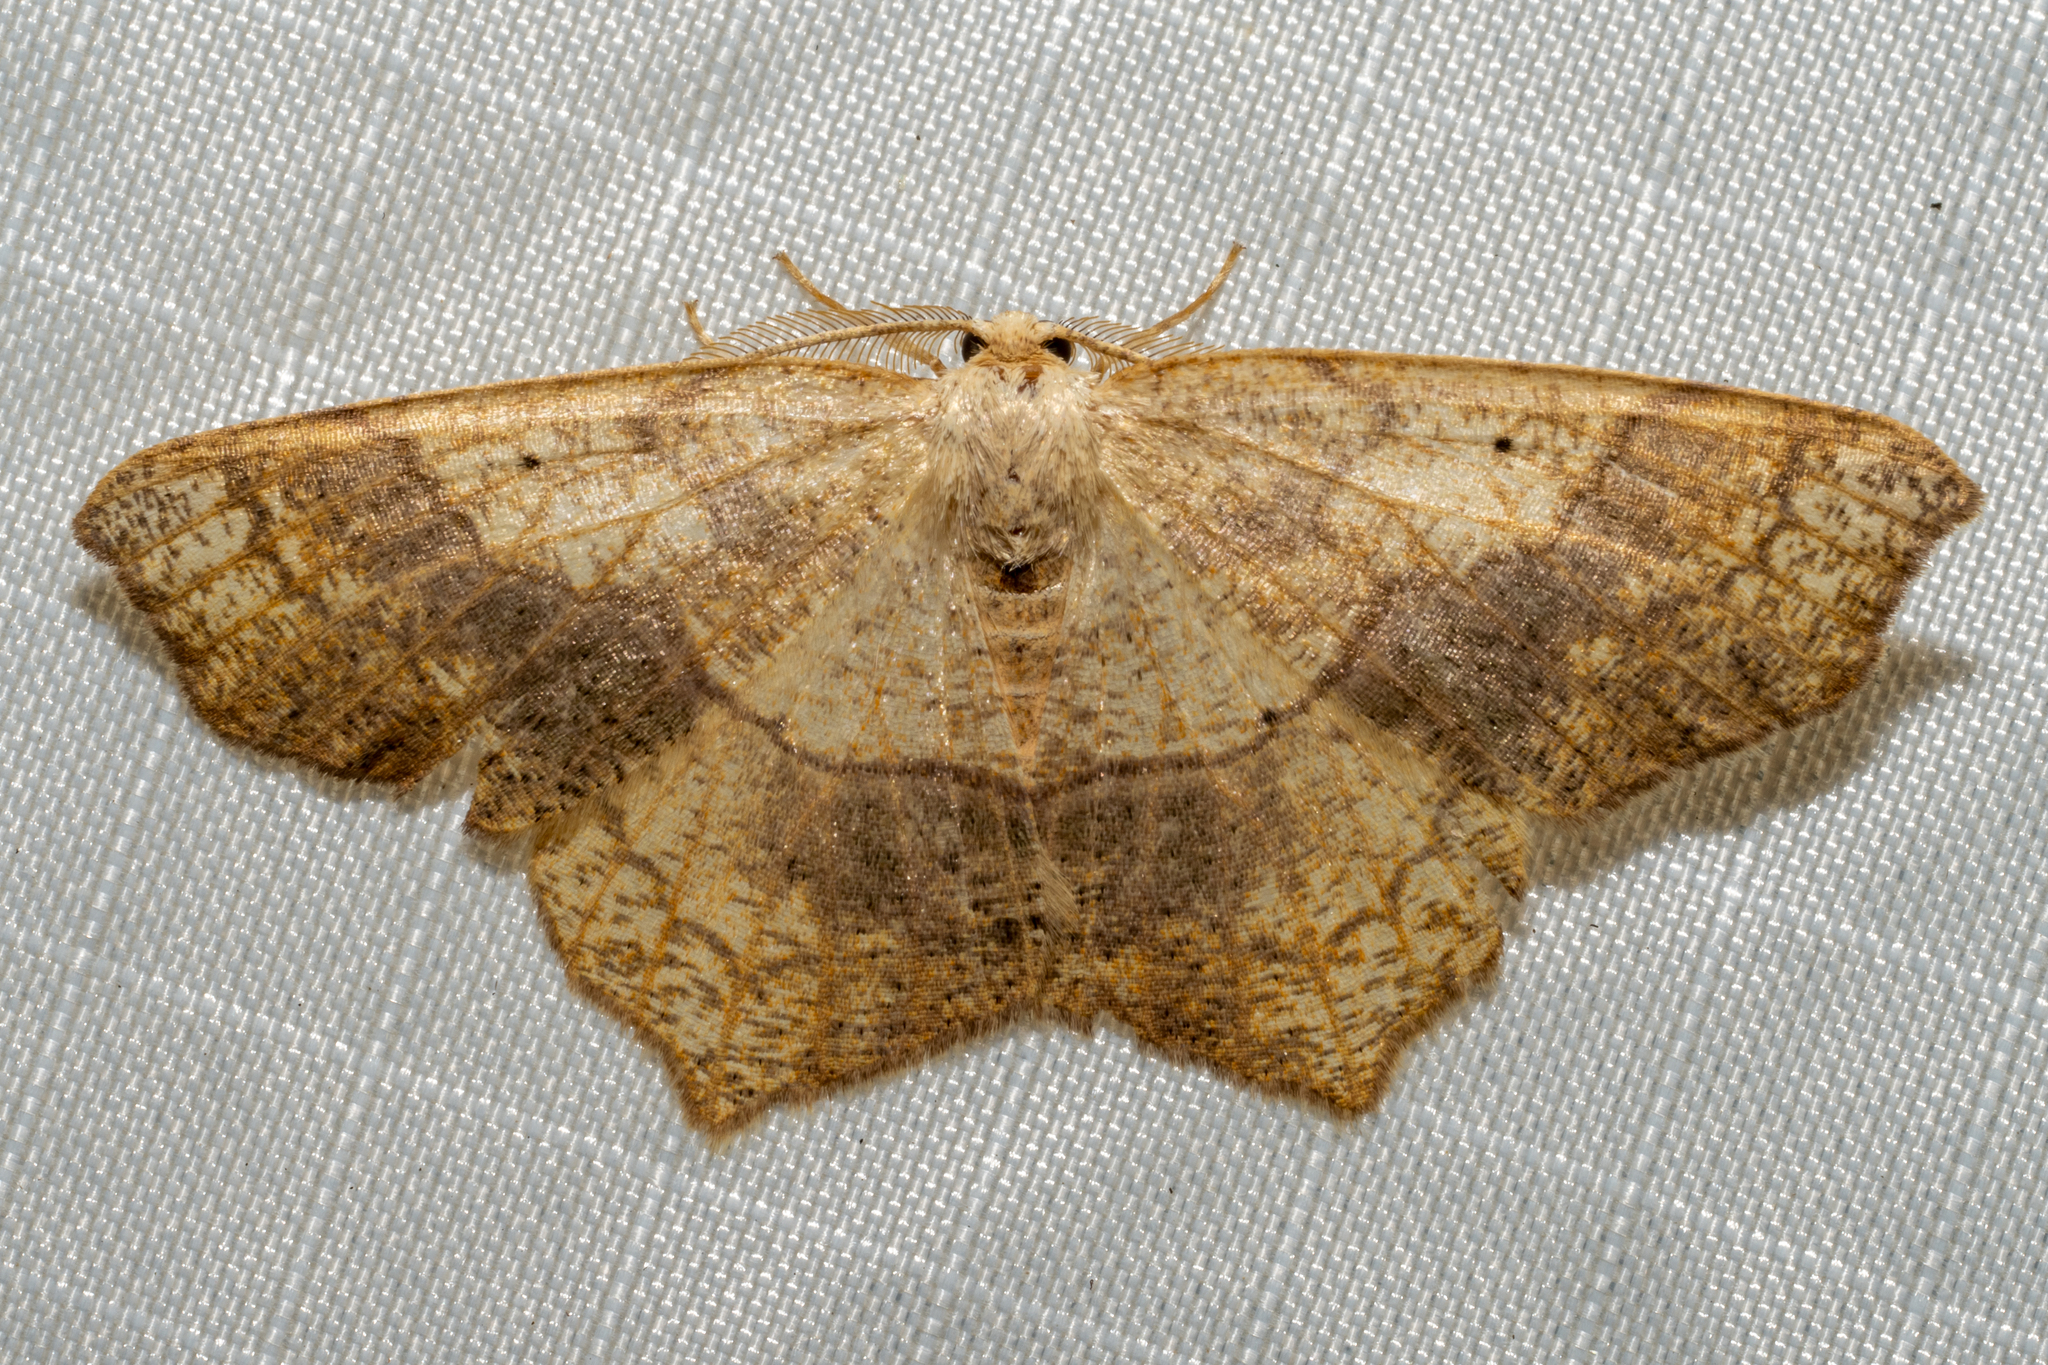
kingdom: Animalia
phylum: Arthropoda
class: Insecta
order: Lepidoptera
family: Geometridae
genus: Besma
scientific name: Besma quercivoraria
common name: Oak besma
